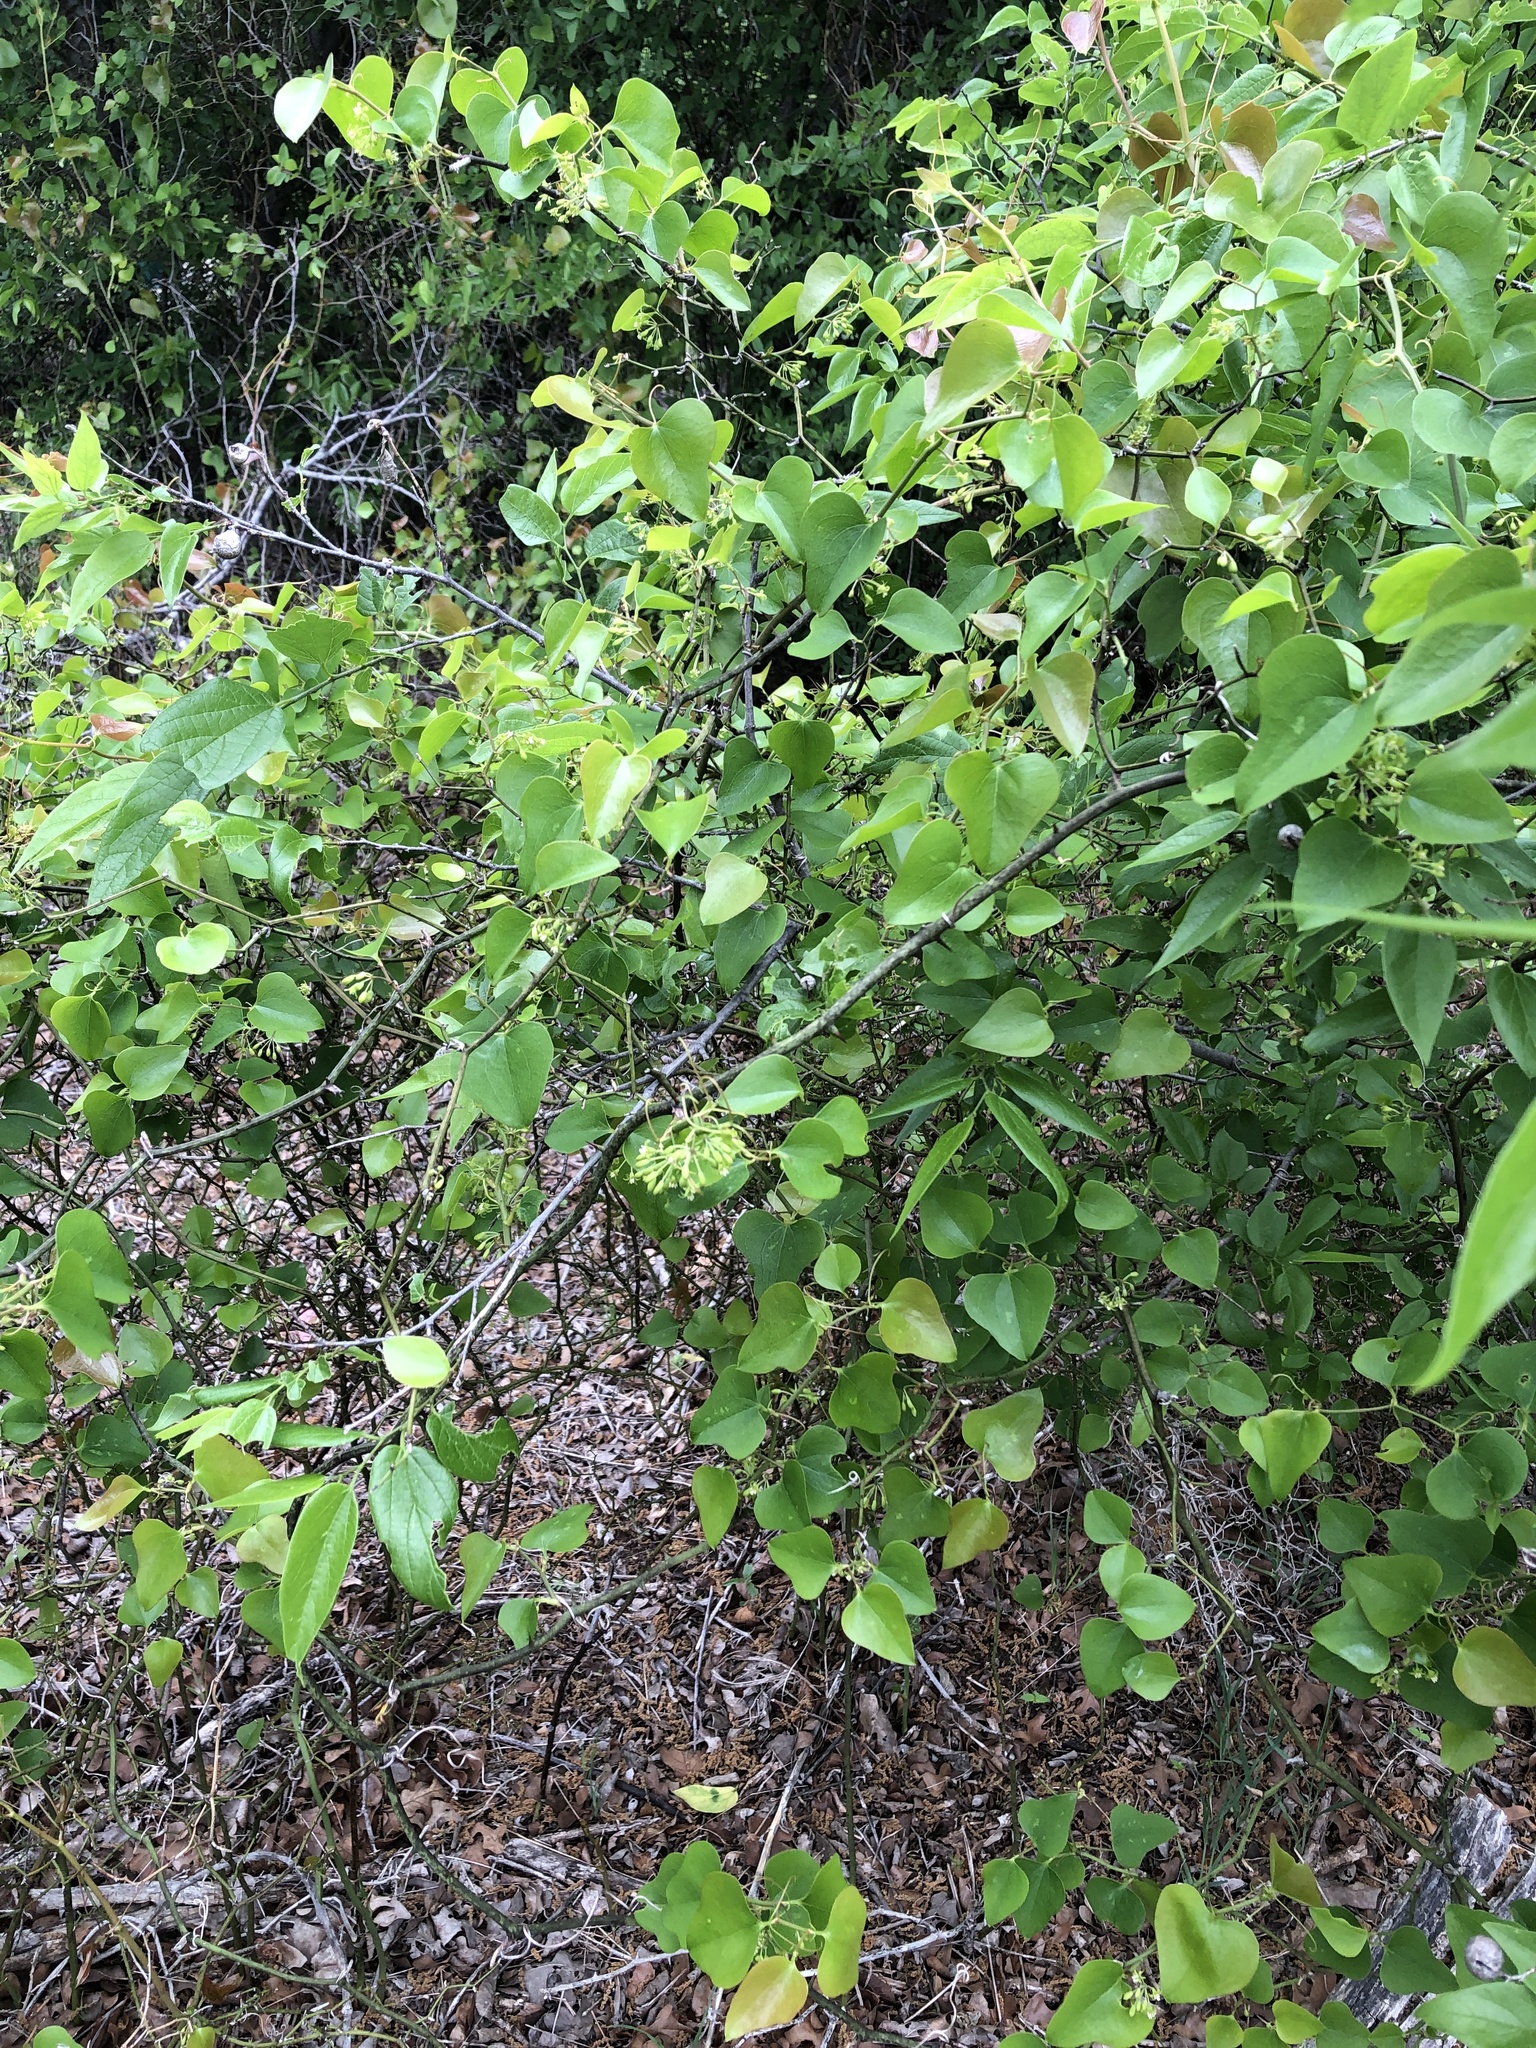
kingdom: Plantae
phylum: Tracheophyta
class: Liliopsida
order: Liliales
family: Smilacaceae
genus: Smilax
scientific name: Smilax bona-nox
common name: Catbrier
